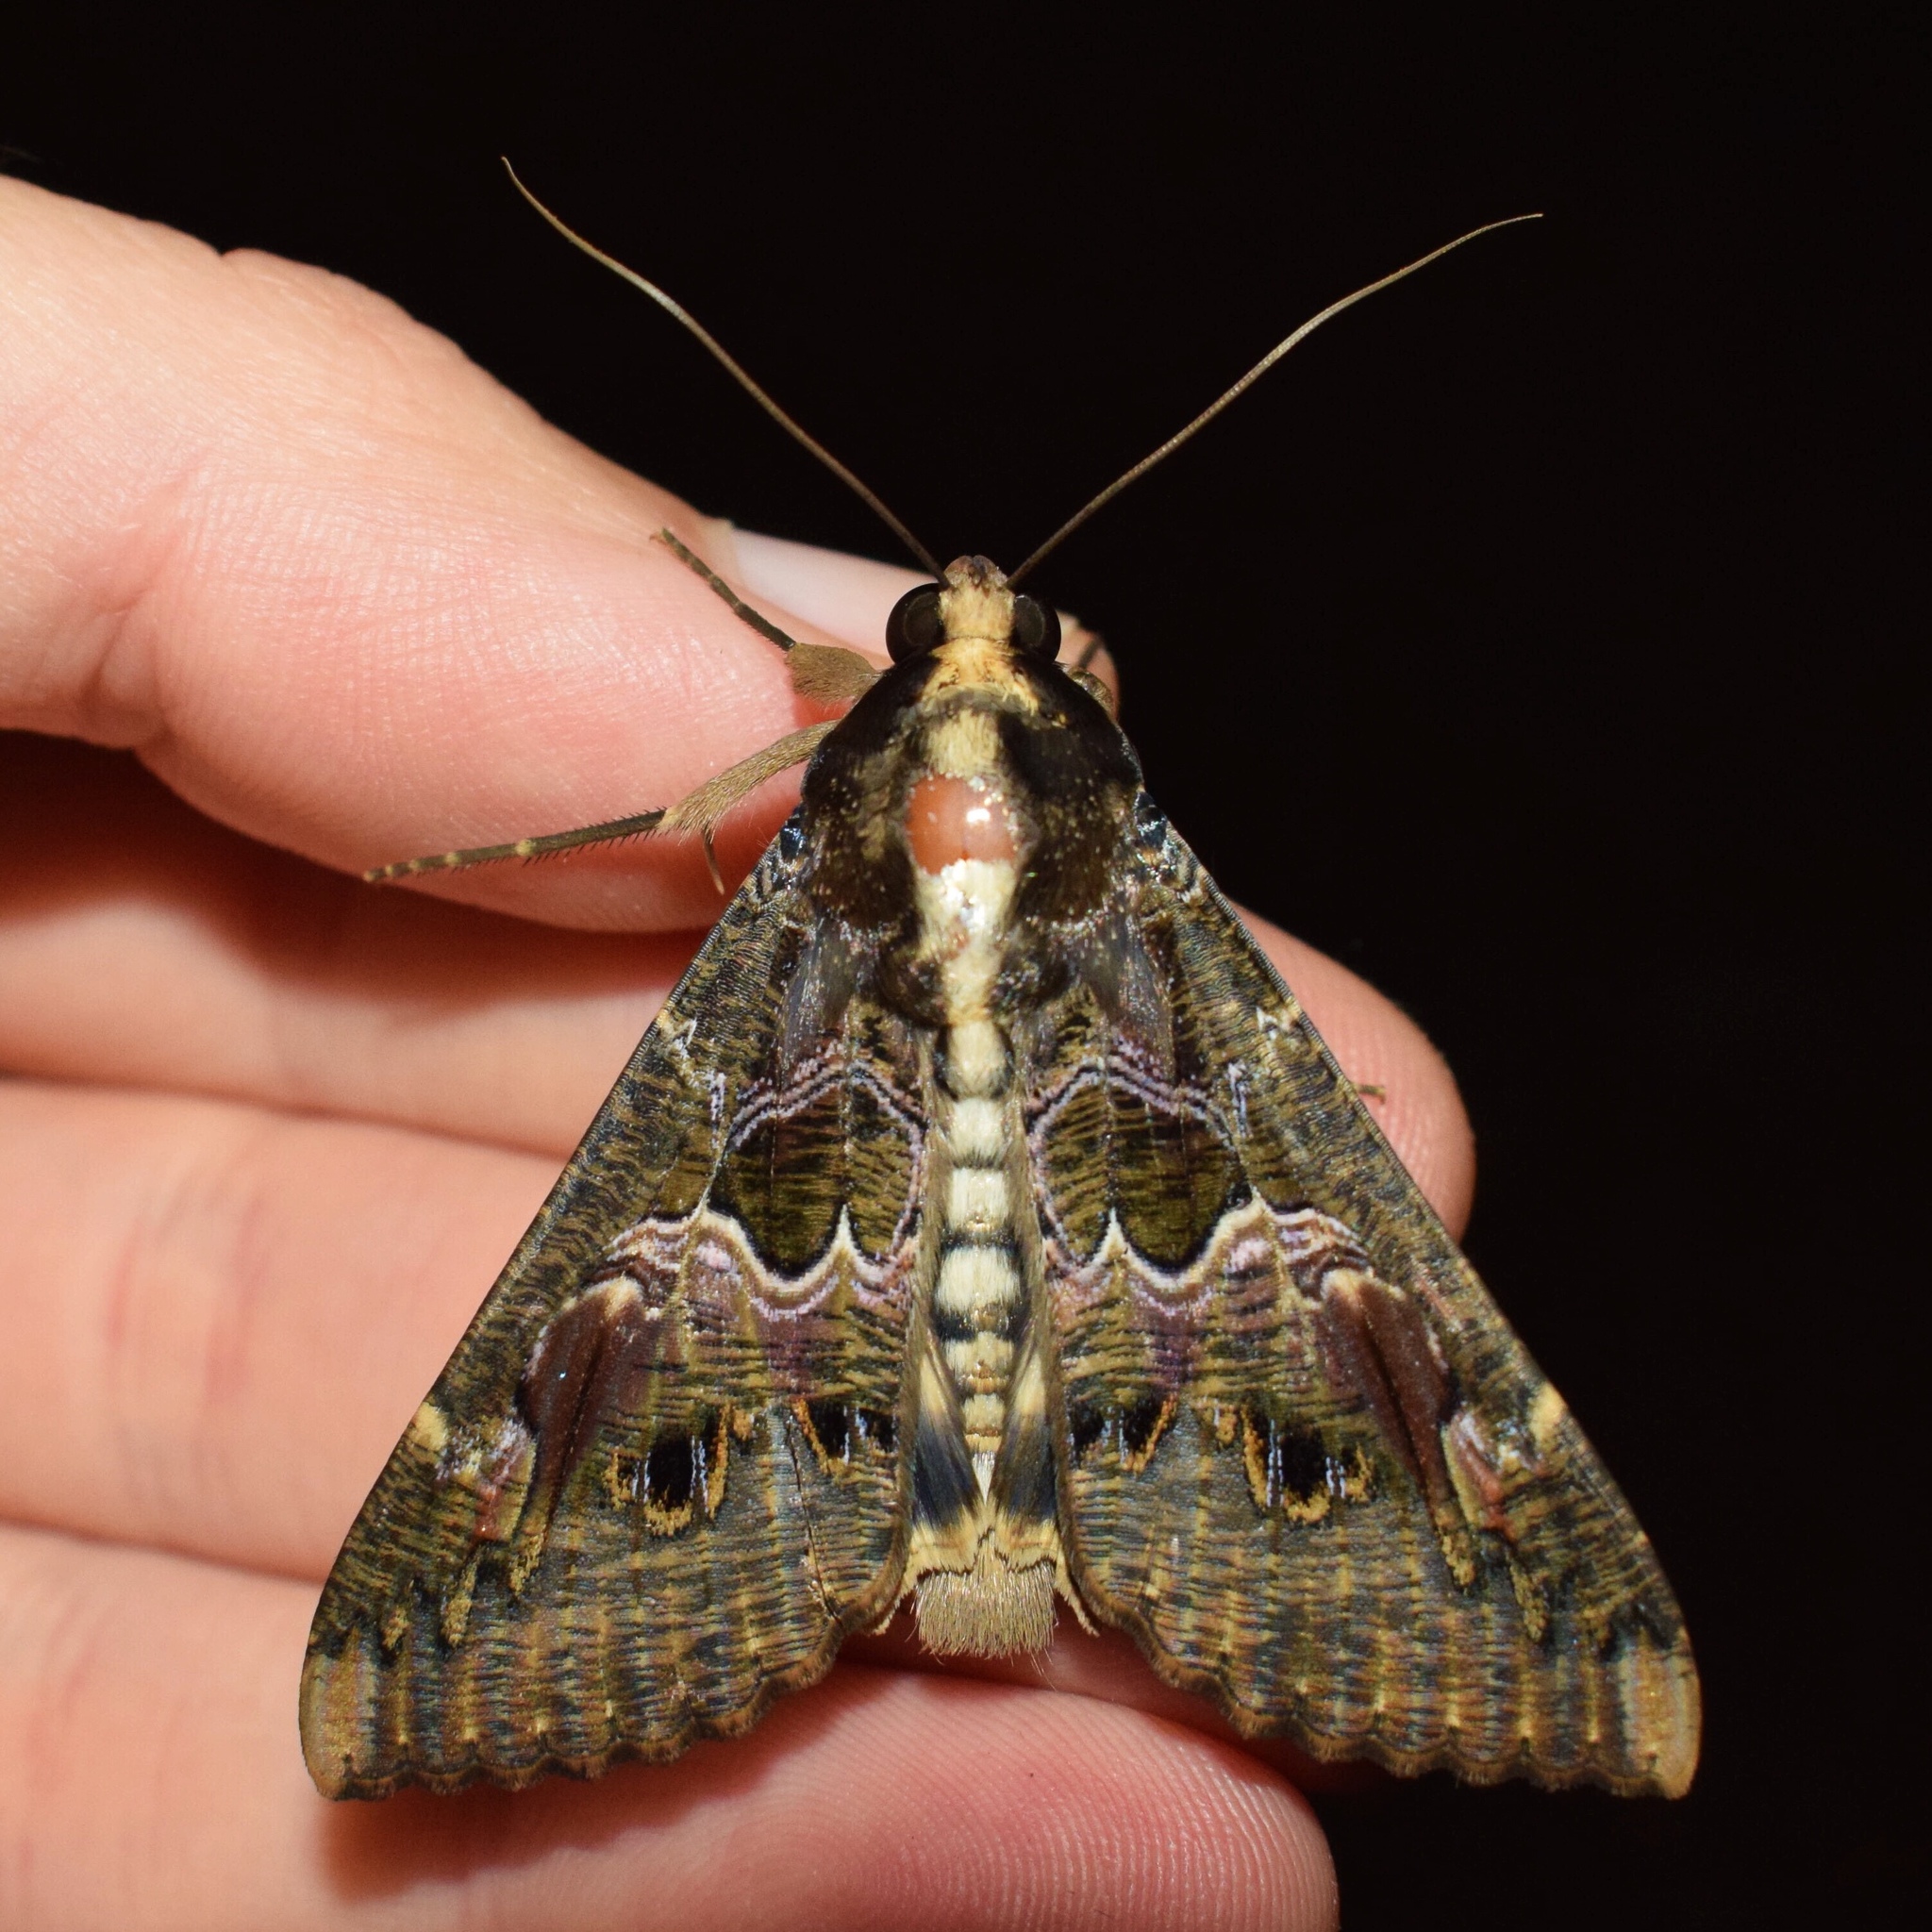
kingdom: Animalia
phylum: Arthropoda
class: Insecta
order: Lepidoptera
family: Erebidae
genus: Sphingomorpha
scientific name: Sphingomorpha chlorea
